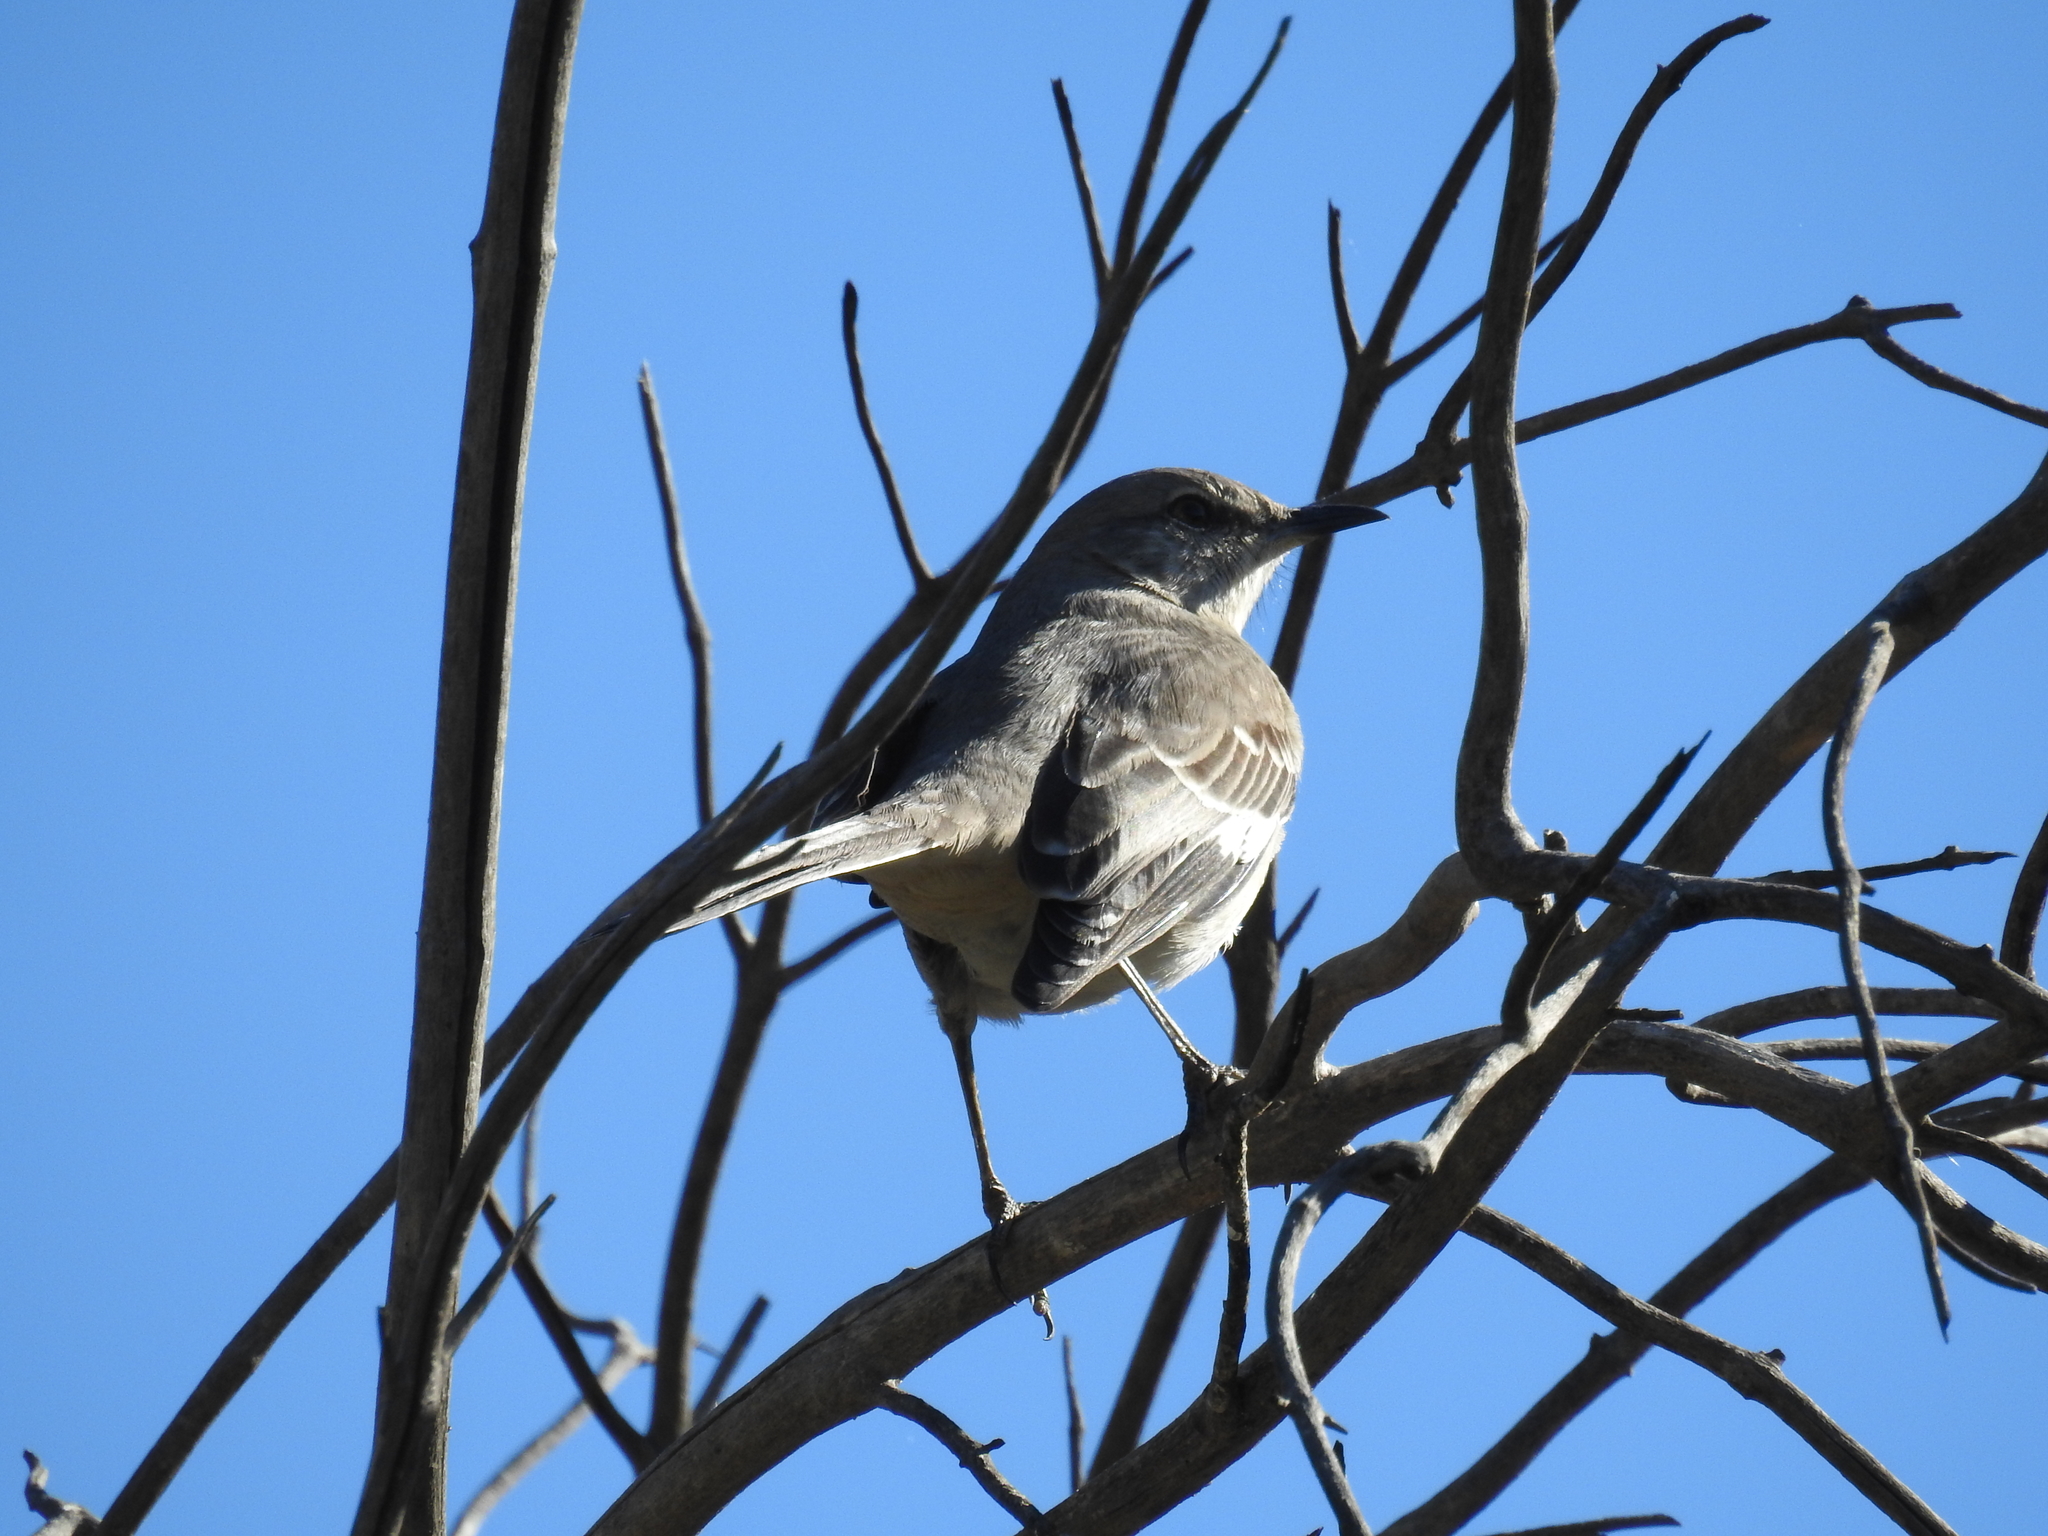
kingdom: Animalia
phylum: Chordata
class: Aves
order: Passeriformes
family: Mimidae
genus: Mimus
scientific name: Mimus polyglottos
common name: Northern mockingbird
